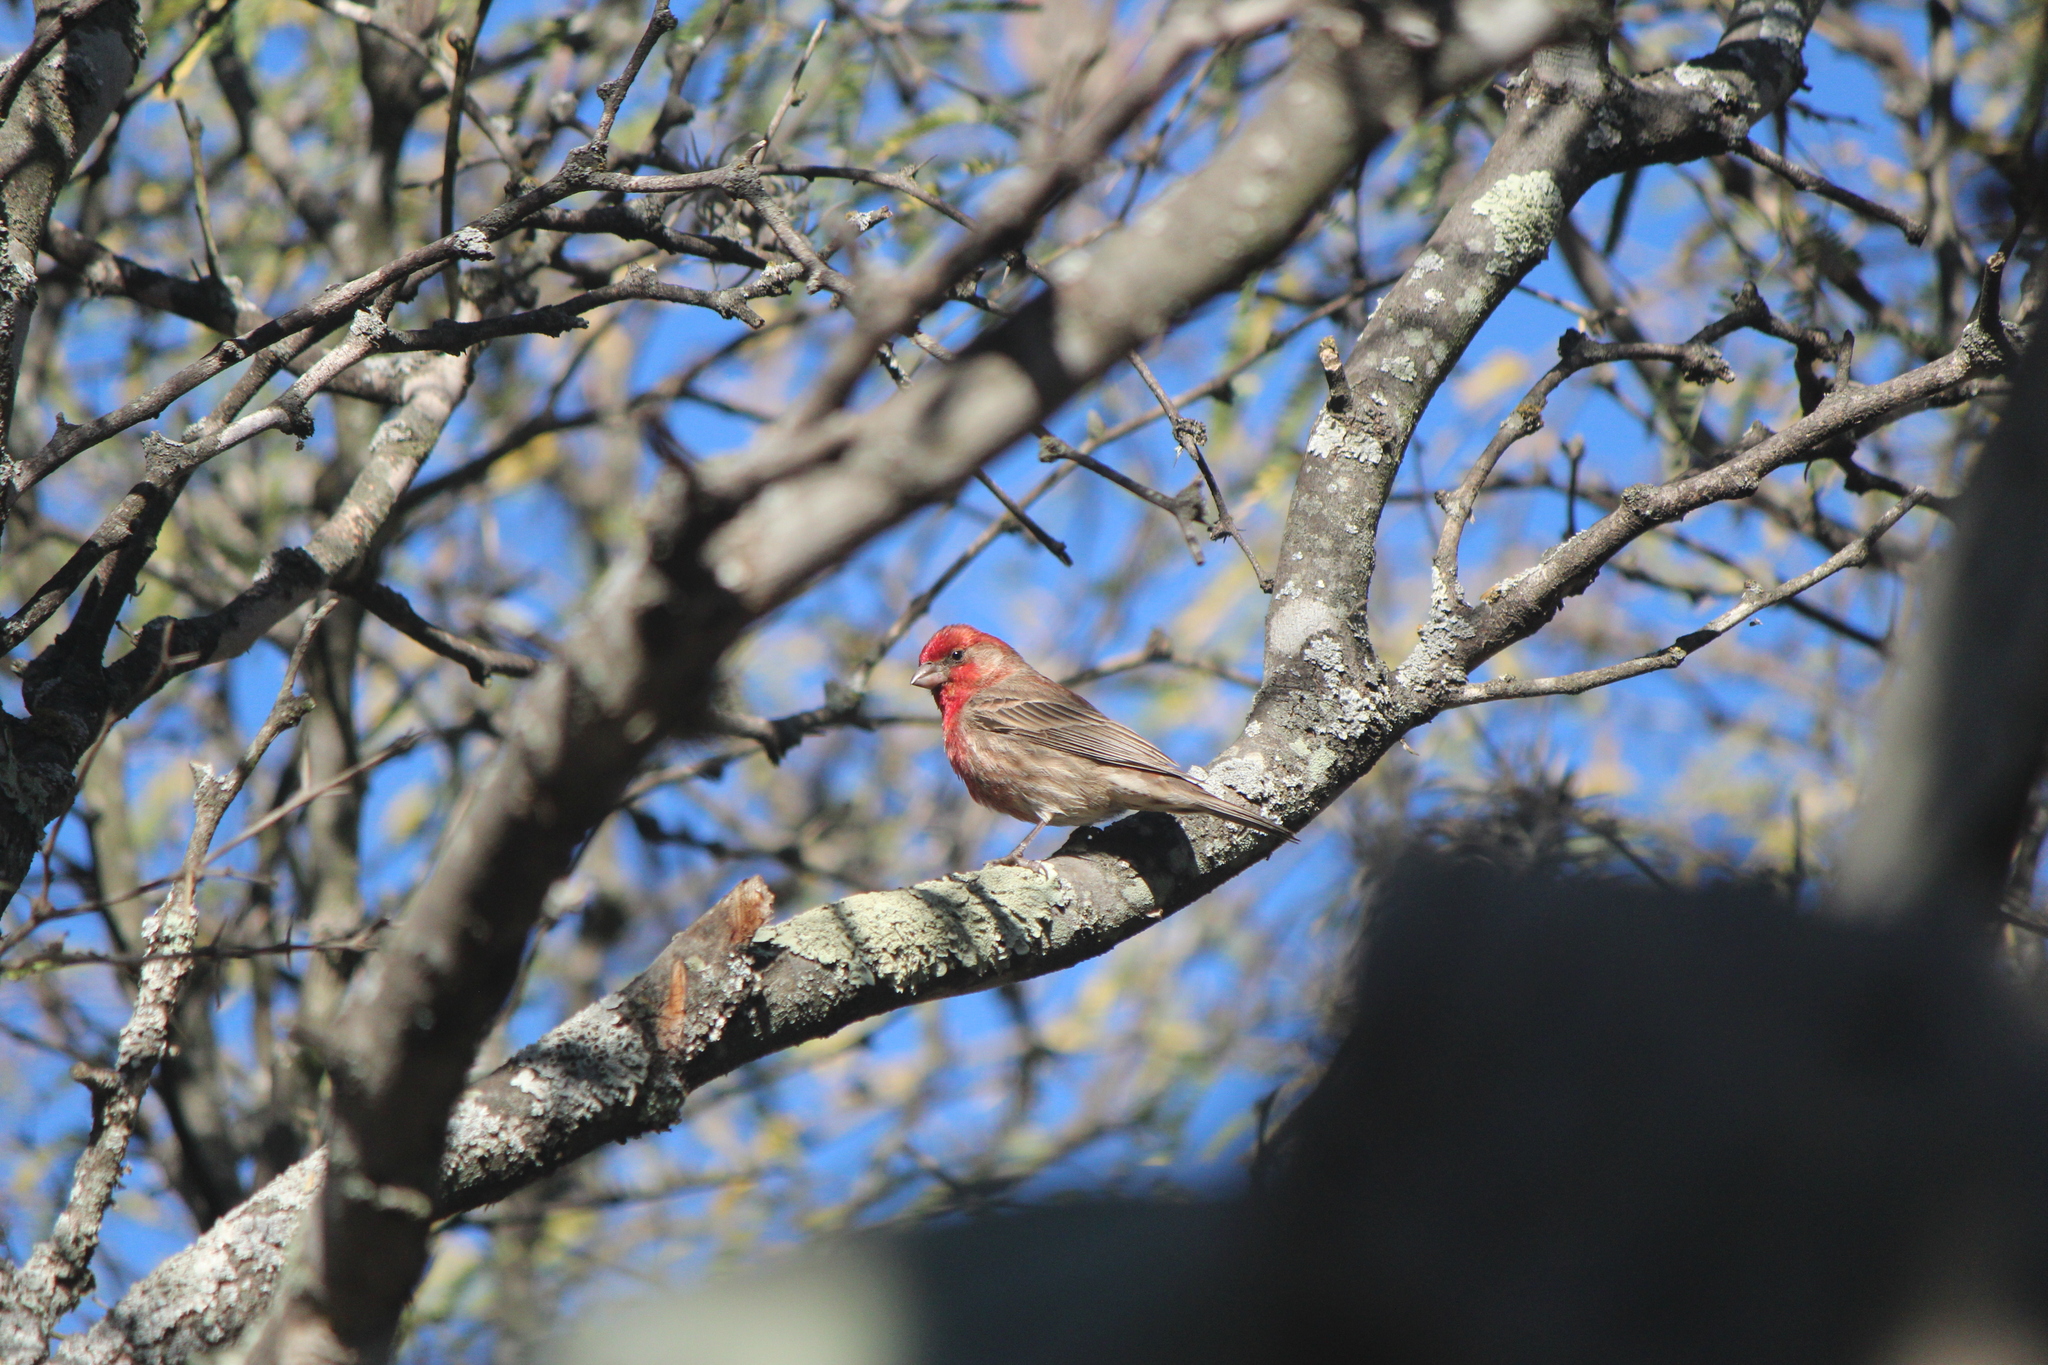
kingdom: Animalia
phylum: Chordata
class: Aves
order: Passeriformes
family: Fringillidae
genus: Haemorhous
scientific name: Haemorhous mexicanus
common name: House finch
